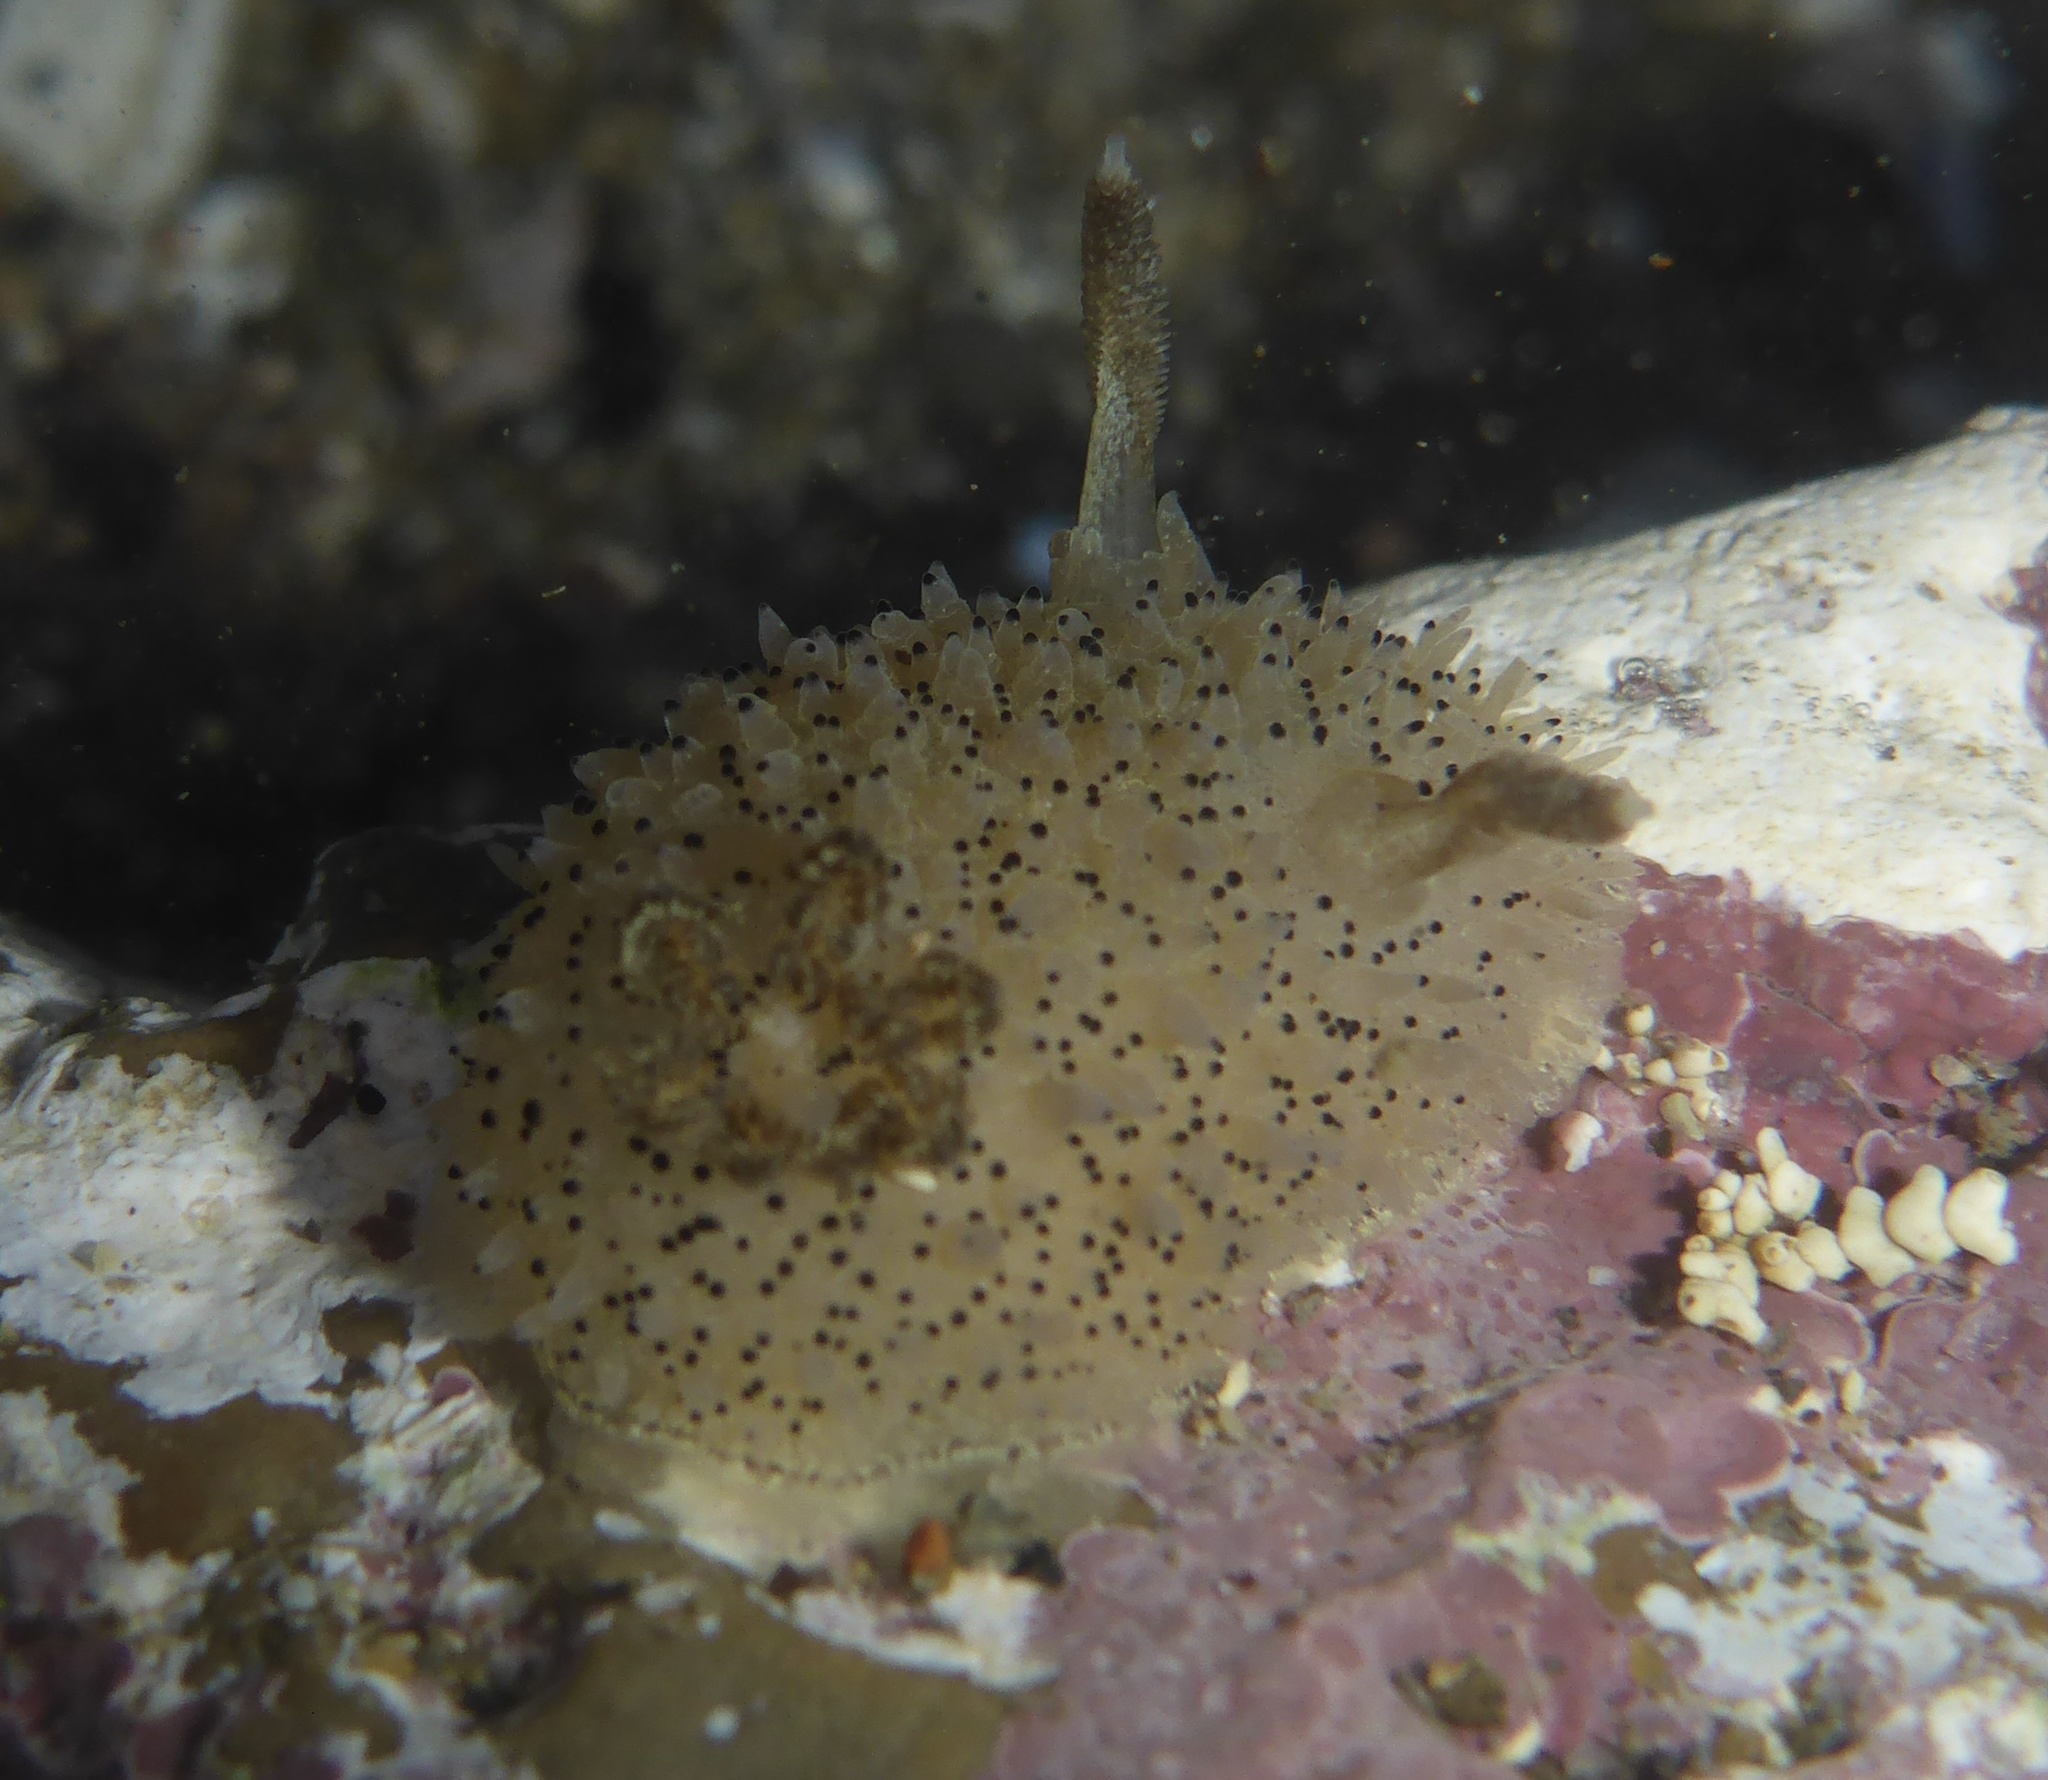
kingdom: Animalia
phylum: Mollusca
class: Gastropoda
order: Nudibranchia
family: Onchidorididae
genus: Acanthodoris
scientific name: Acanthodoris rhodoceras
